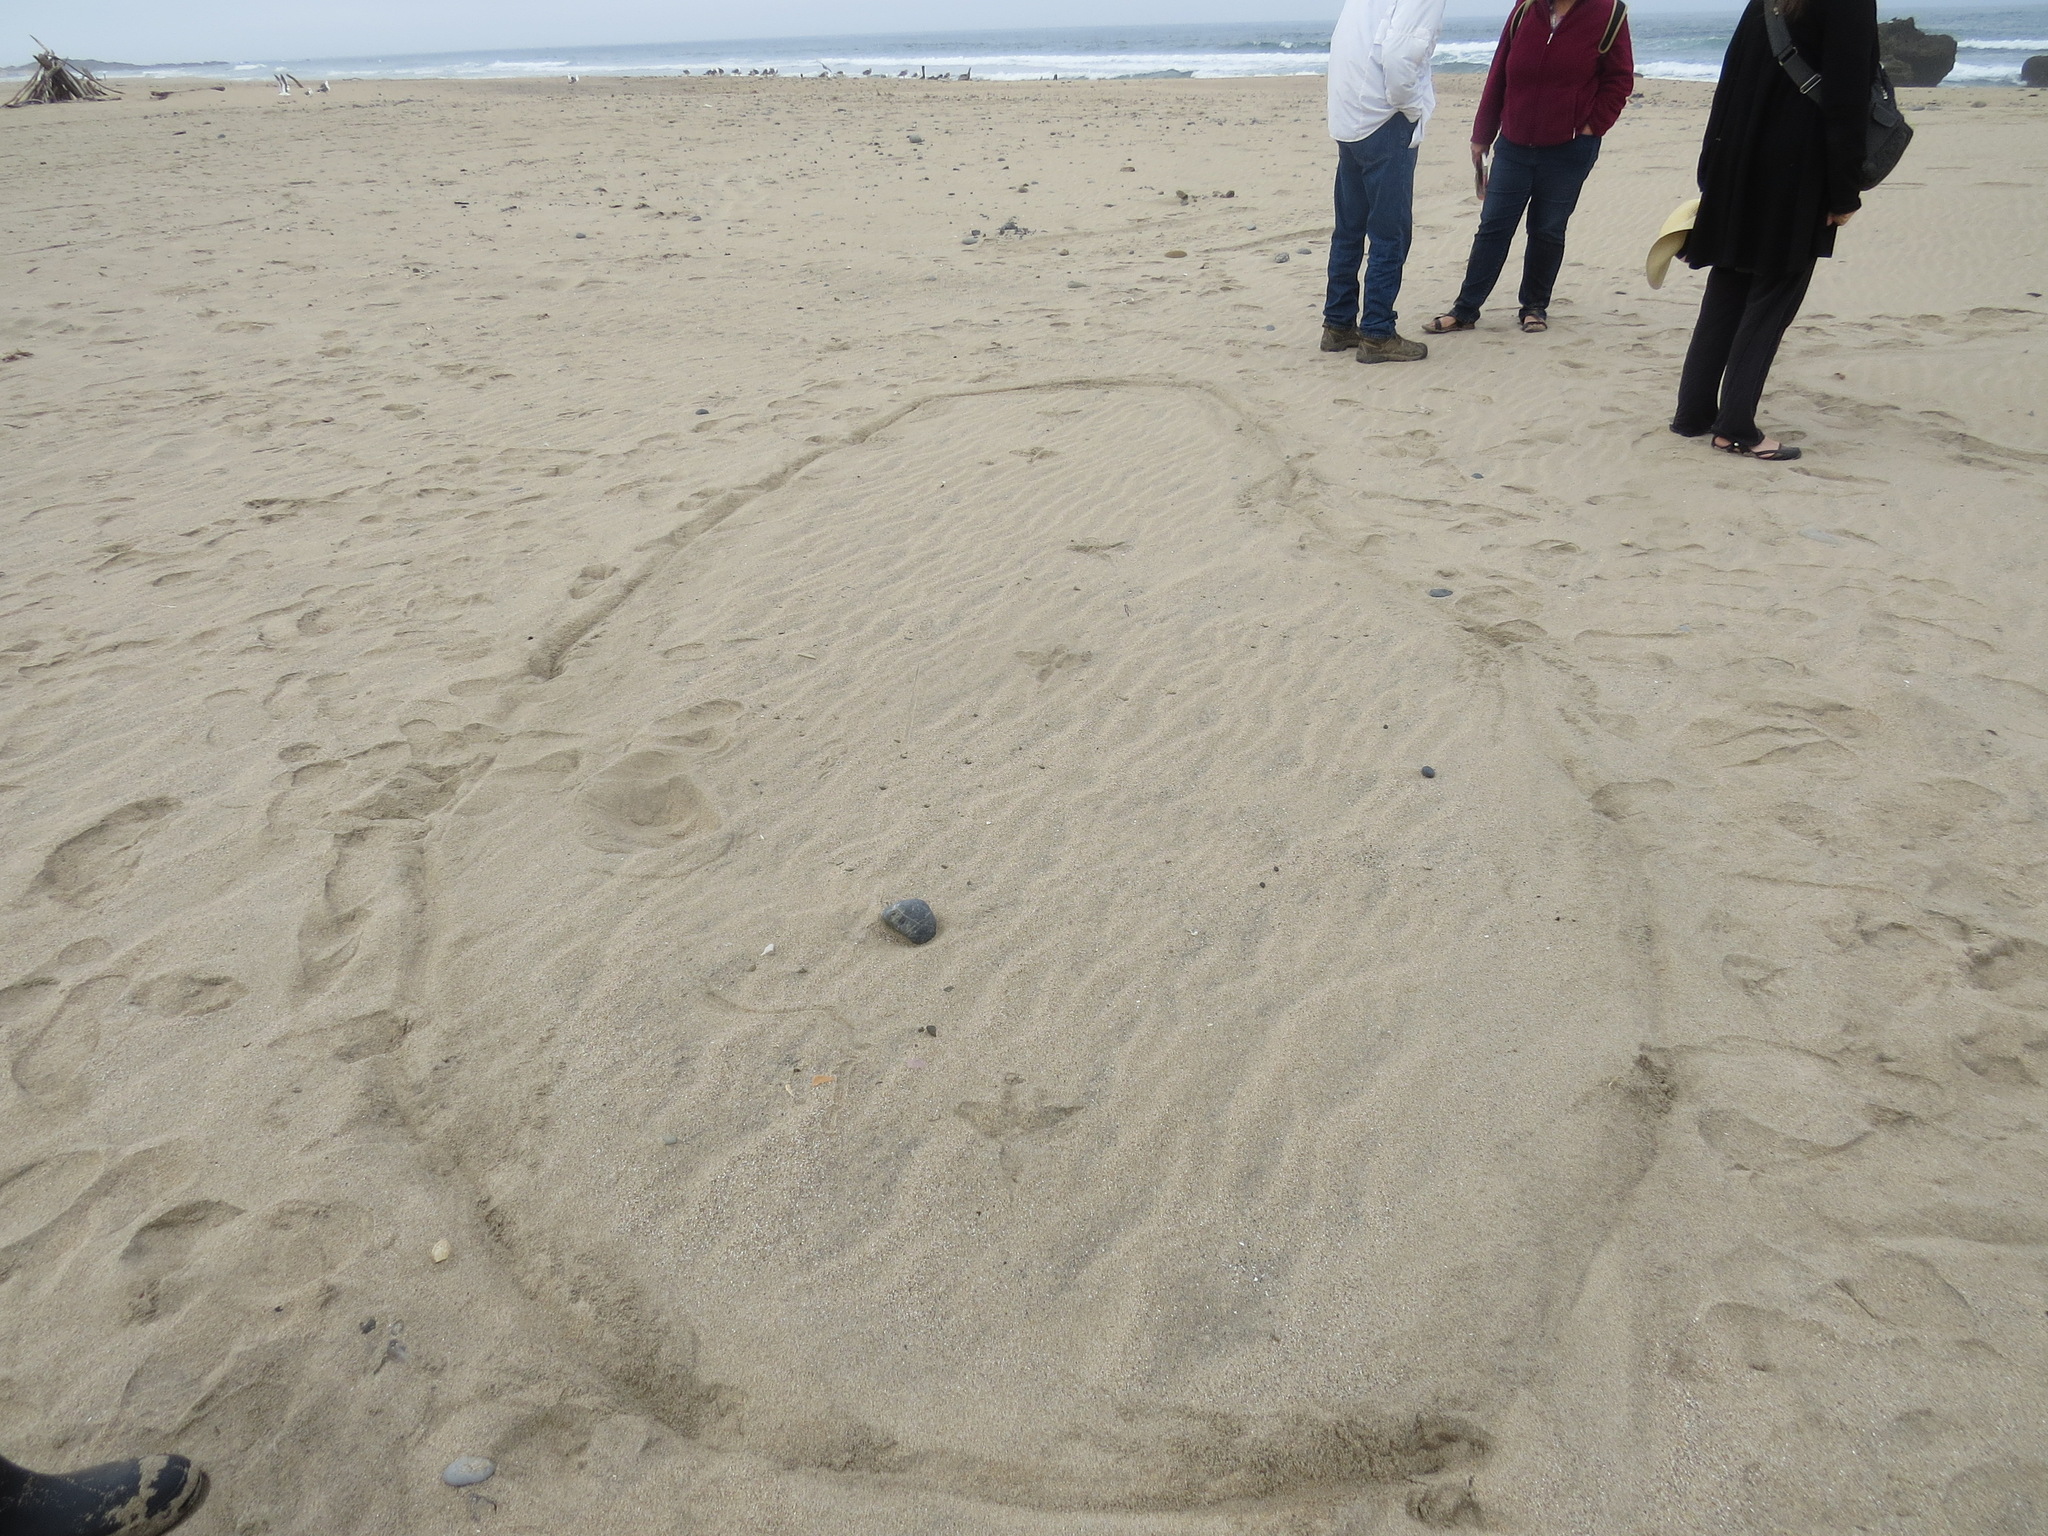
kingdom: Animalia
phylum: Chordata
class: Aves
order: Pelecaniformes
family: Ardeidae
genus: Ardea
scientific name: Ardea herodias
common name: Great blue heron
